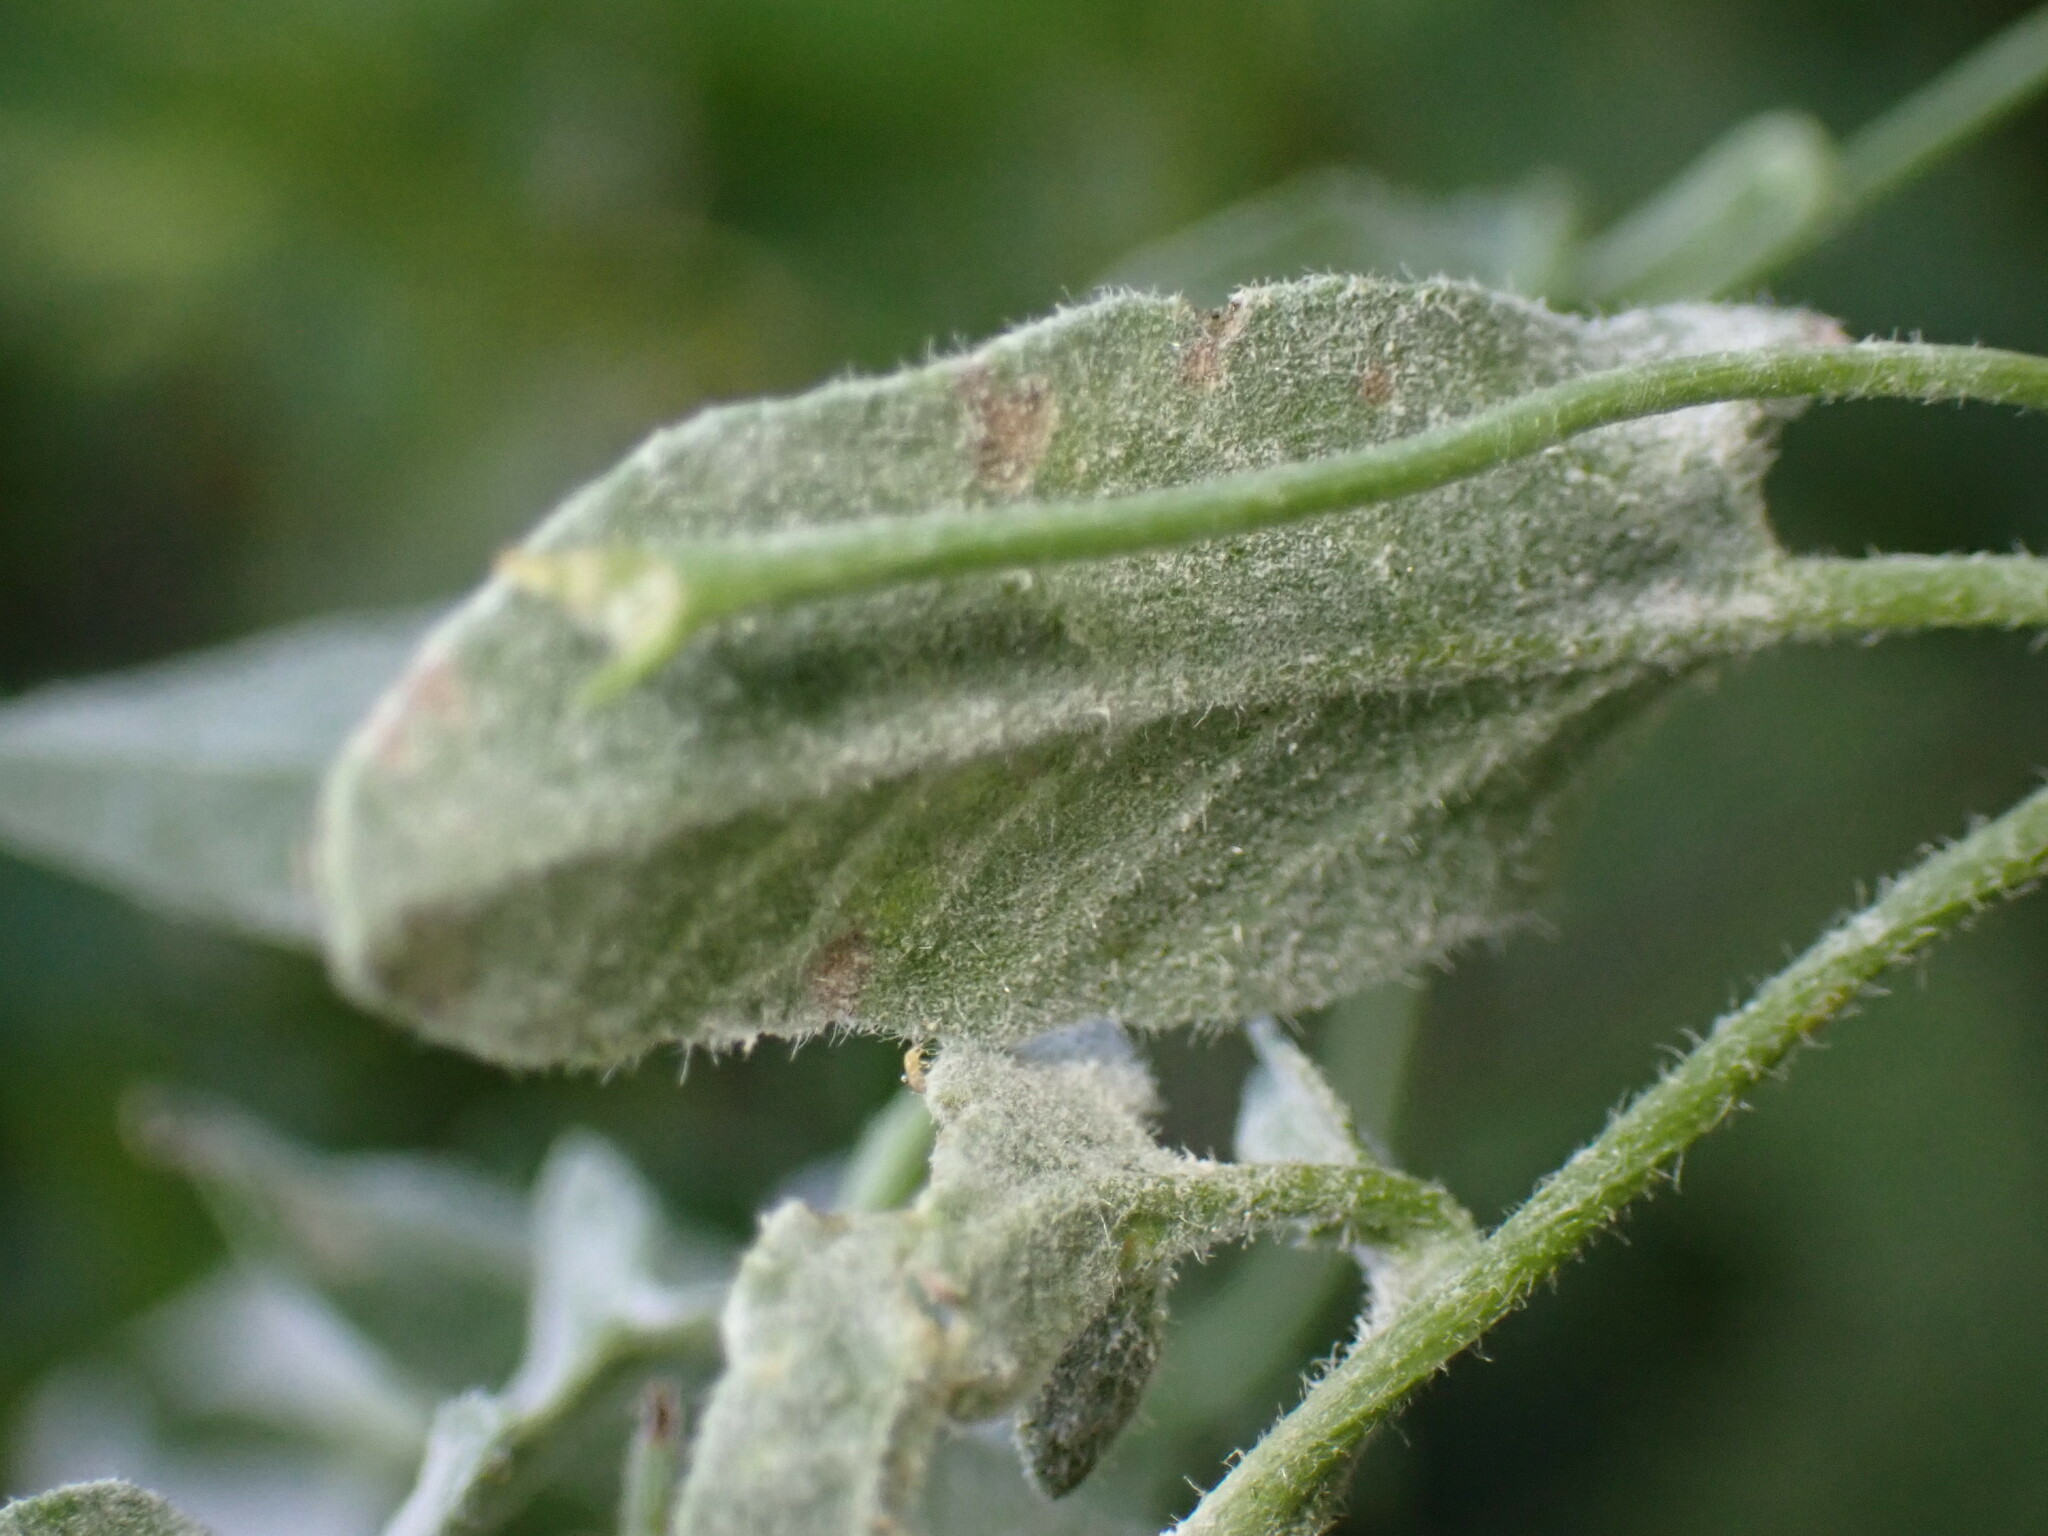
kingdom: Plantae
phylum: Tracheophyta
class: Magnoliopsida
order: Solanales
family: Convolvulaceae
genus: Convolvulus
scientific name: Convolvulus arvensis
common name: Field bindweed
